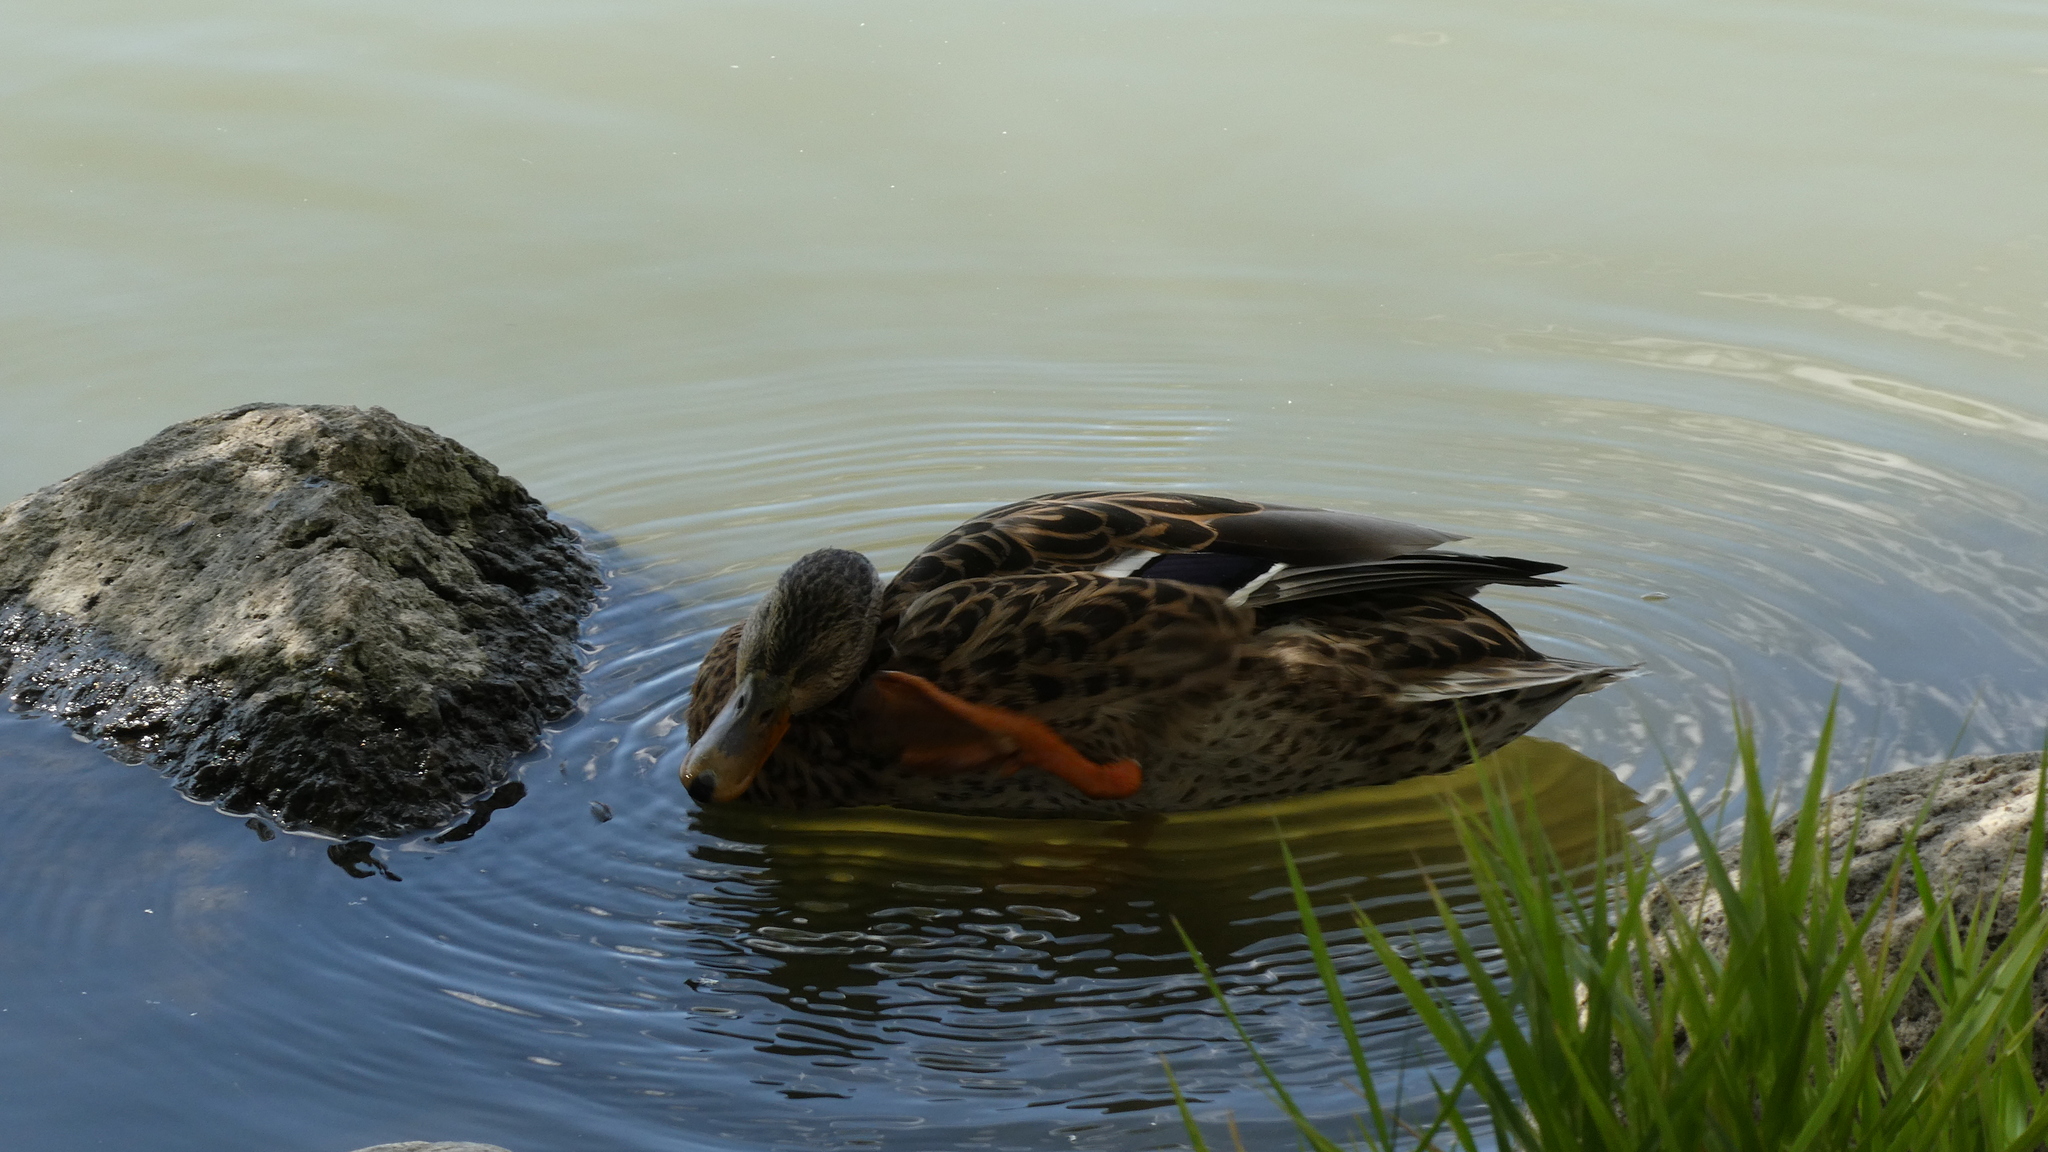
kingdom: Animalia
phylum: Chordata
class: Aves
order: Anseriformes
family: Anatidae
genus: Anas
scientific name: Anas platyrhynchos
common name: Mallard
